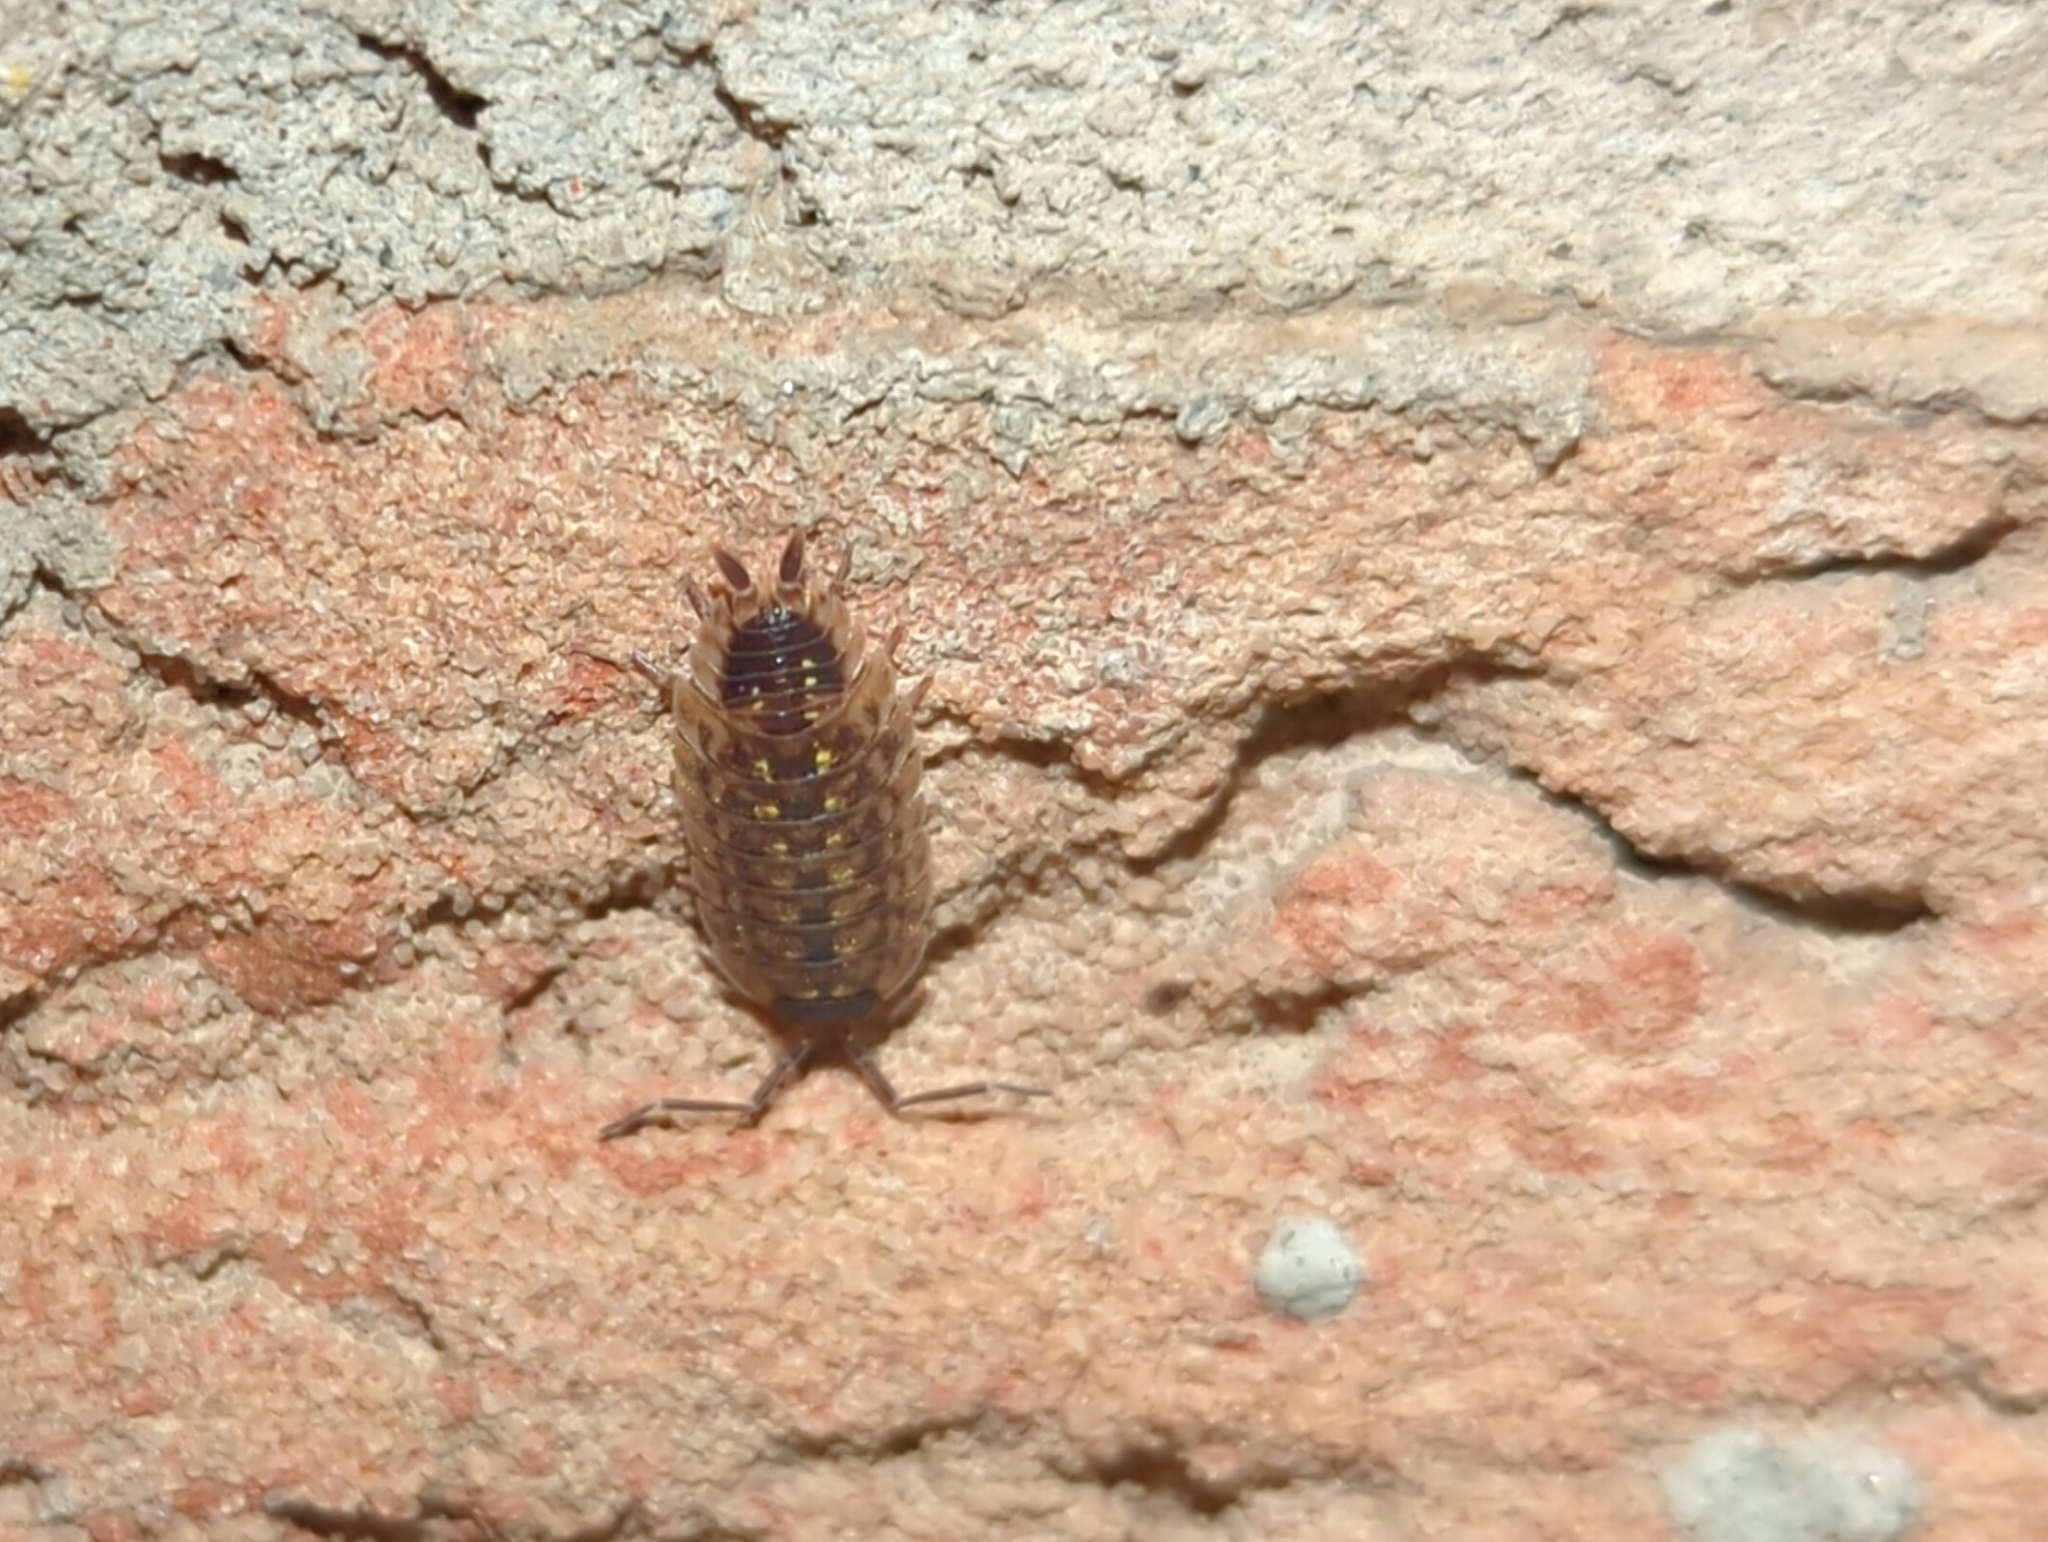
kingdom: Animalia
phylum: Arthropoda
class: Malacostraca
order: Isopoda
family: Porcellionidae
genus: Porcellio
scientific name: Porcellio spinicornis
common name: Painted woodlouse
